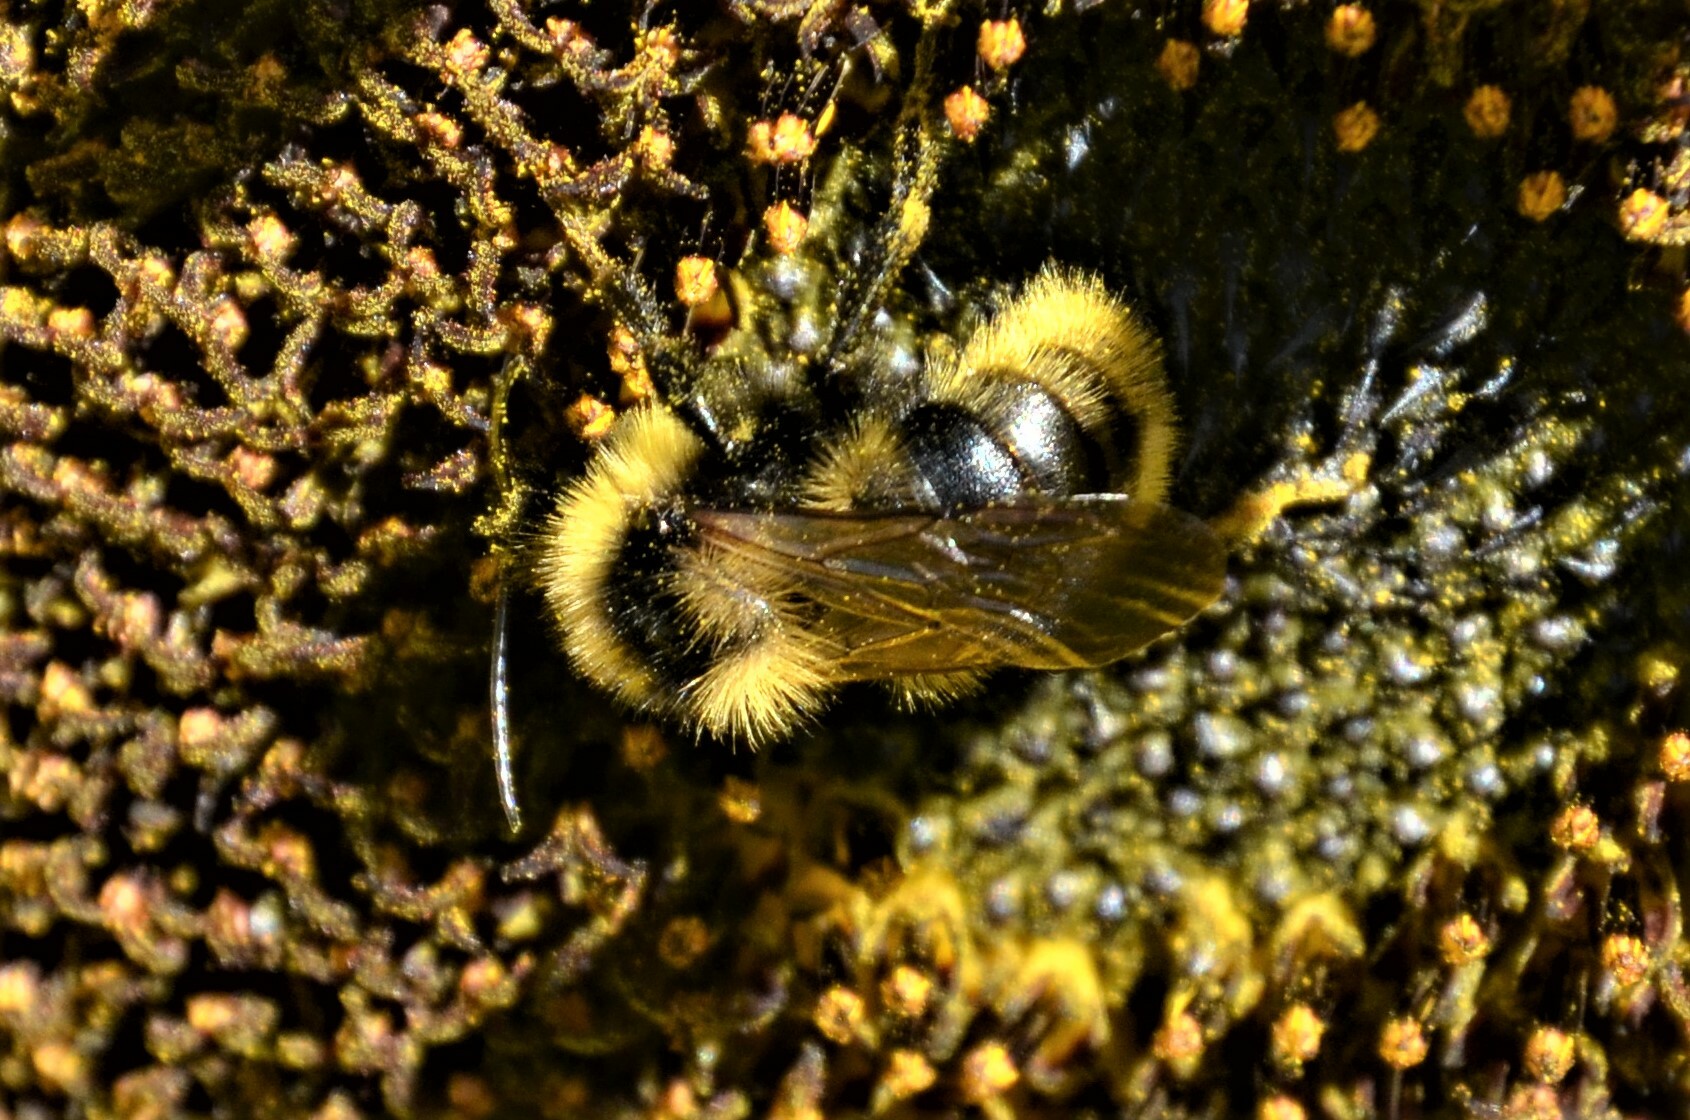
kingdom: Animalia
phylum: Arthropoda
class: Insecta
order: Hymenoptera
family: Apidae
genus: Bombus
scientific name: Bombus campestris
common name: Field cuckoo-bee
